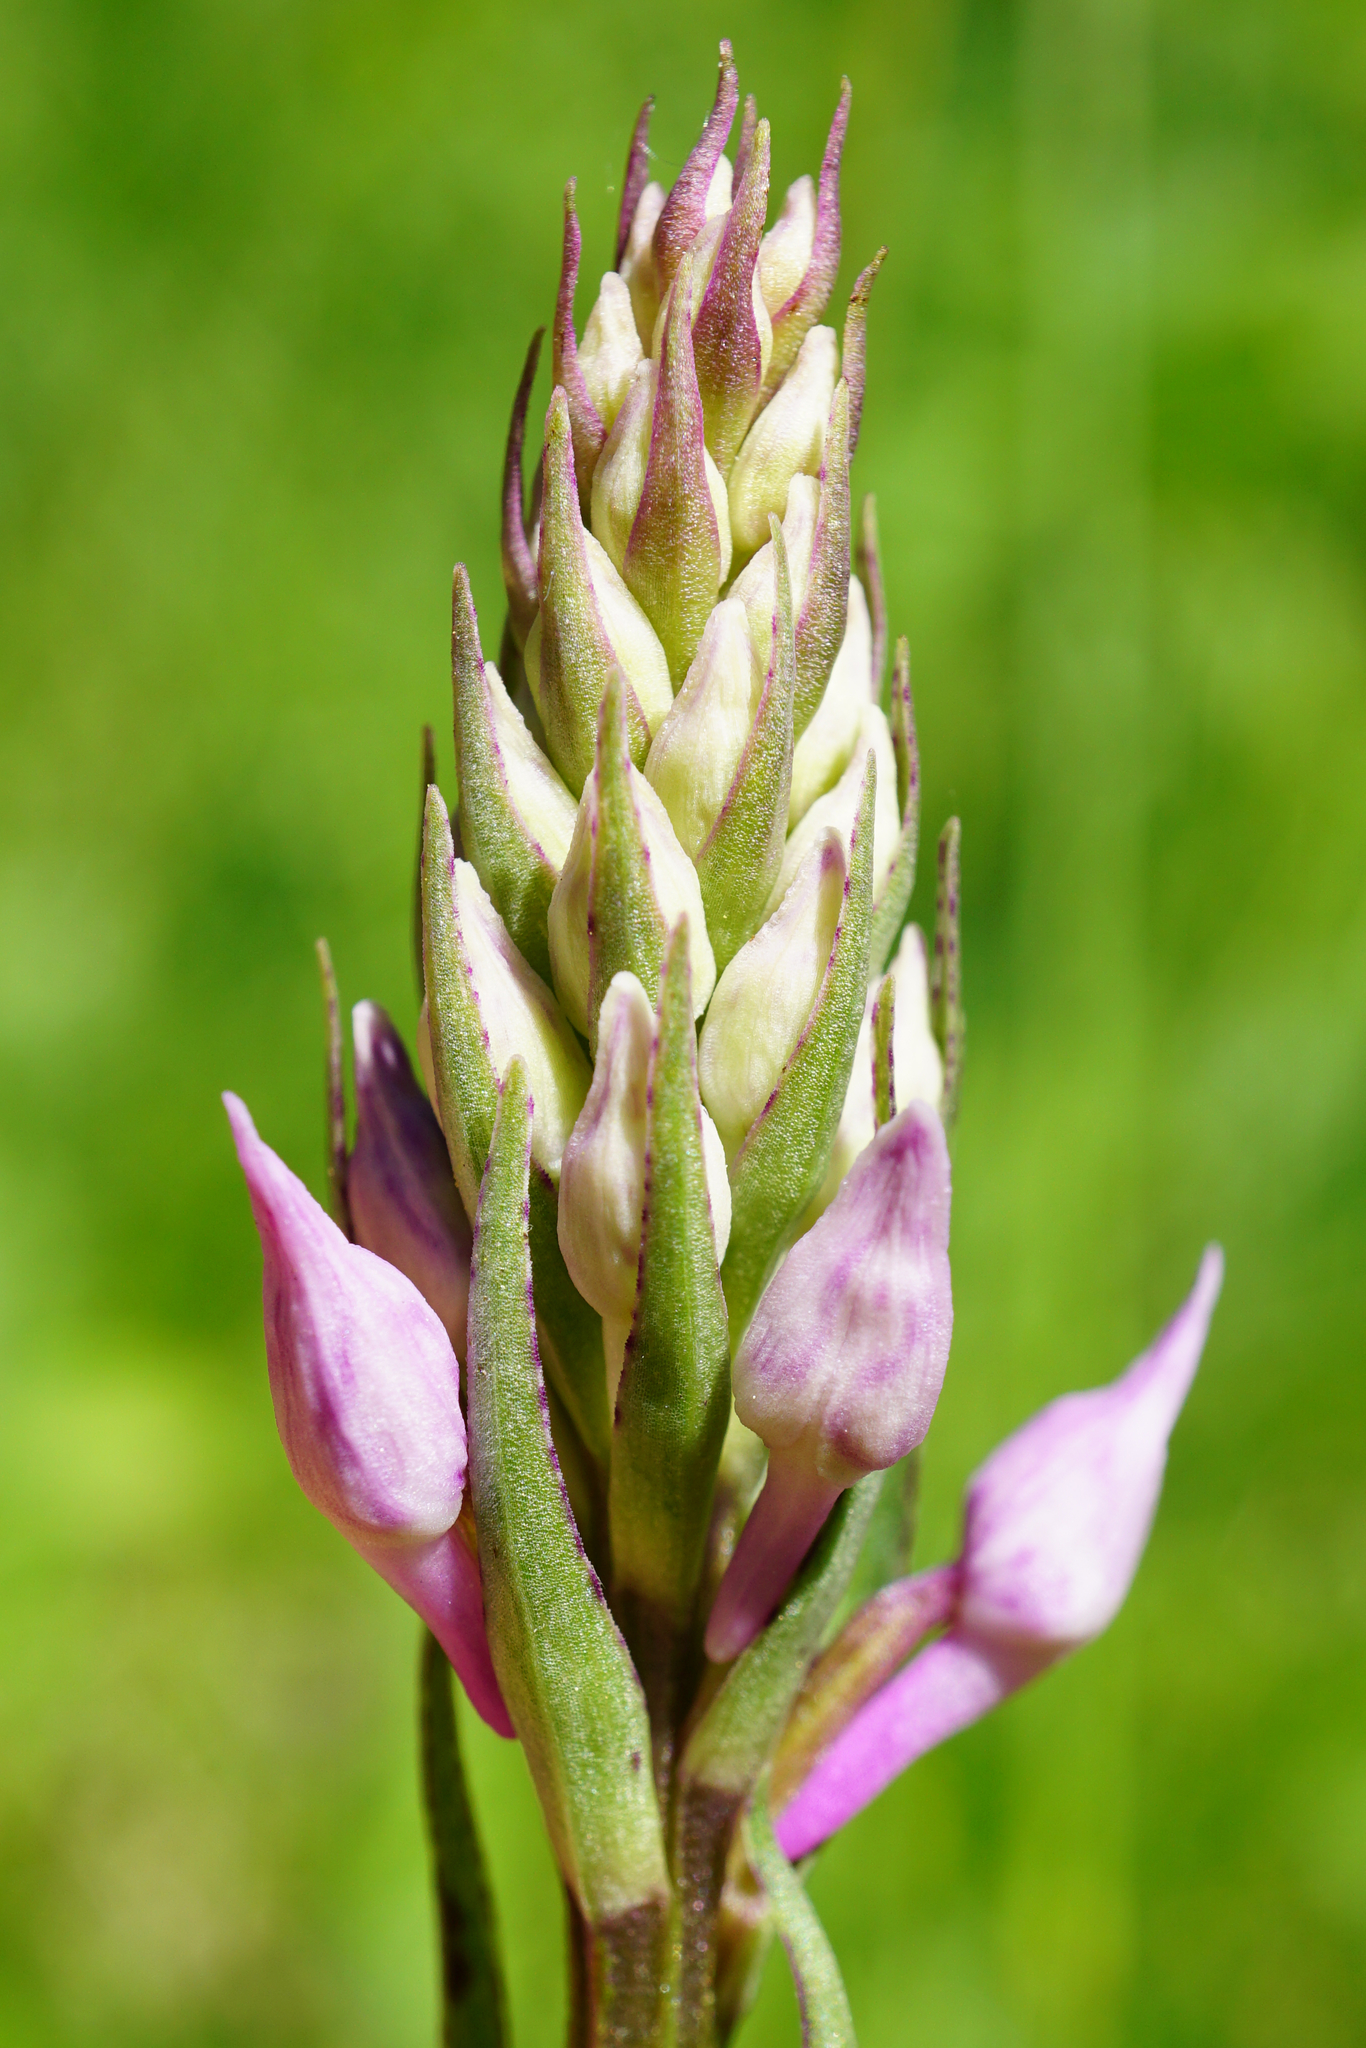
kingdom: Plantae
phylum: Tracheophyta
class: Liliopsida
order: Asparagales
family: Orchidaceae
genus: Dactylorhiza
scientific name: Dactylorhiza maculata
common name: Heath spotted-orchid
